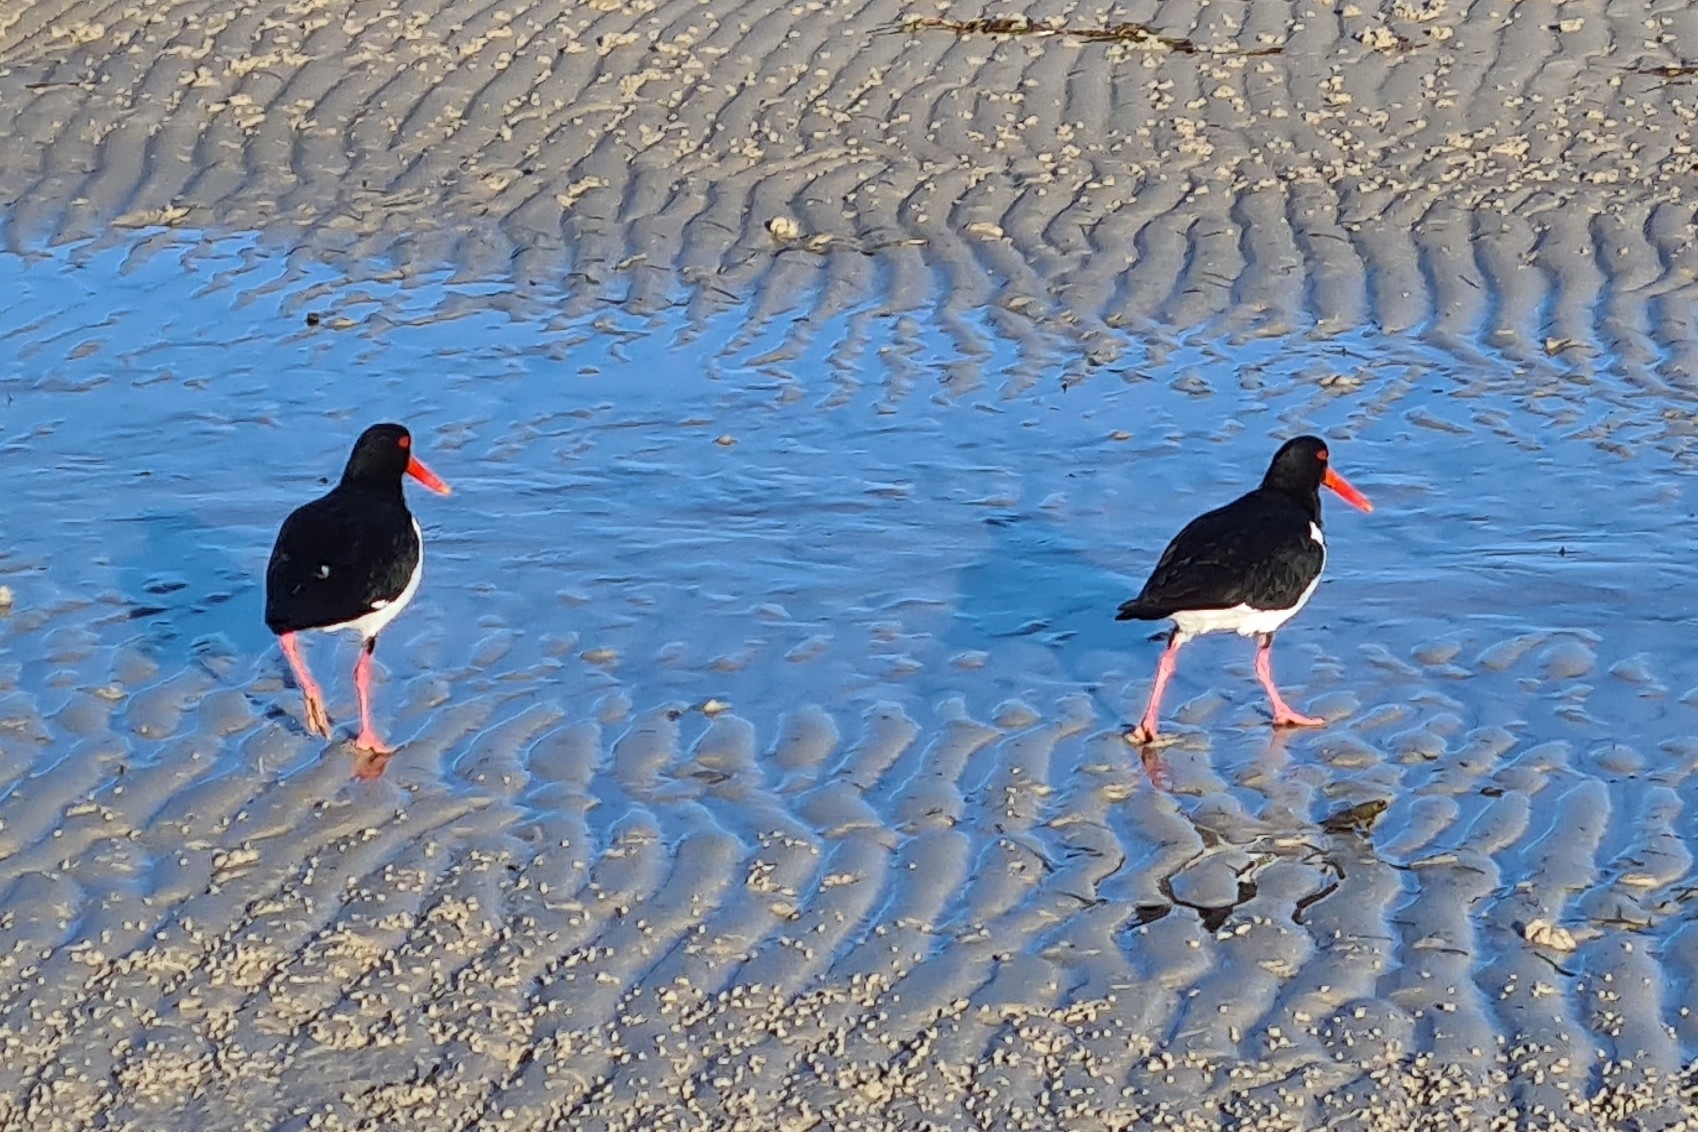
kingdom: Animalia
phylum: Chordata
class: Aves
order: Charadriiformes
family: Haematopodidae
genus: Haematopus
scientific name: Haematopus longirostris
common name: Pied oystercatcher
